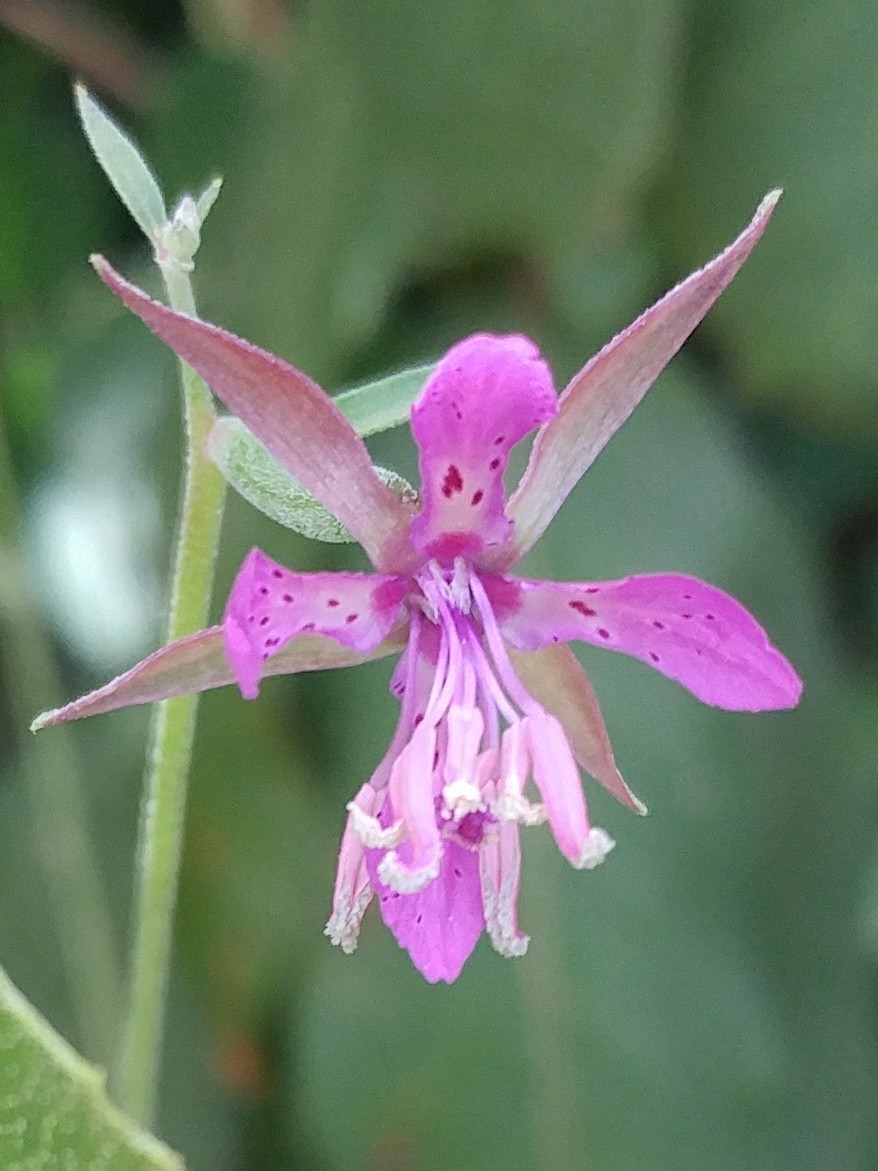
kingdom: Plantae
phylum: Tracheophyta
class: Magnoliopsida
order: Myrtales
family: Onagraceae
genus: Clarkia
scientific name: Clarkia rhomboidea
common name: Broadleaf clarkia
